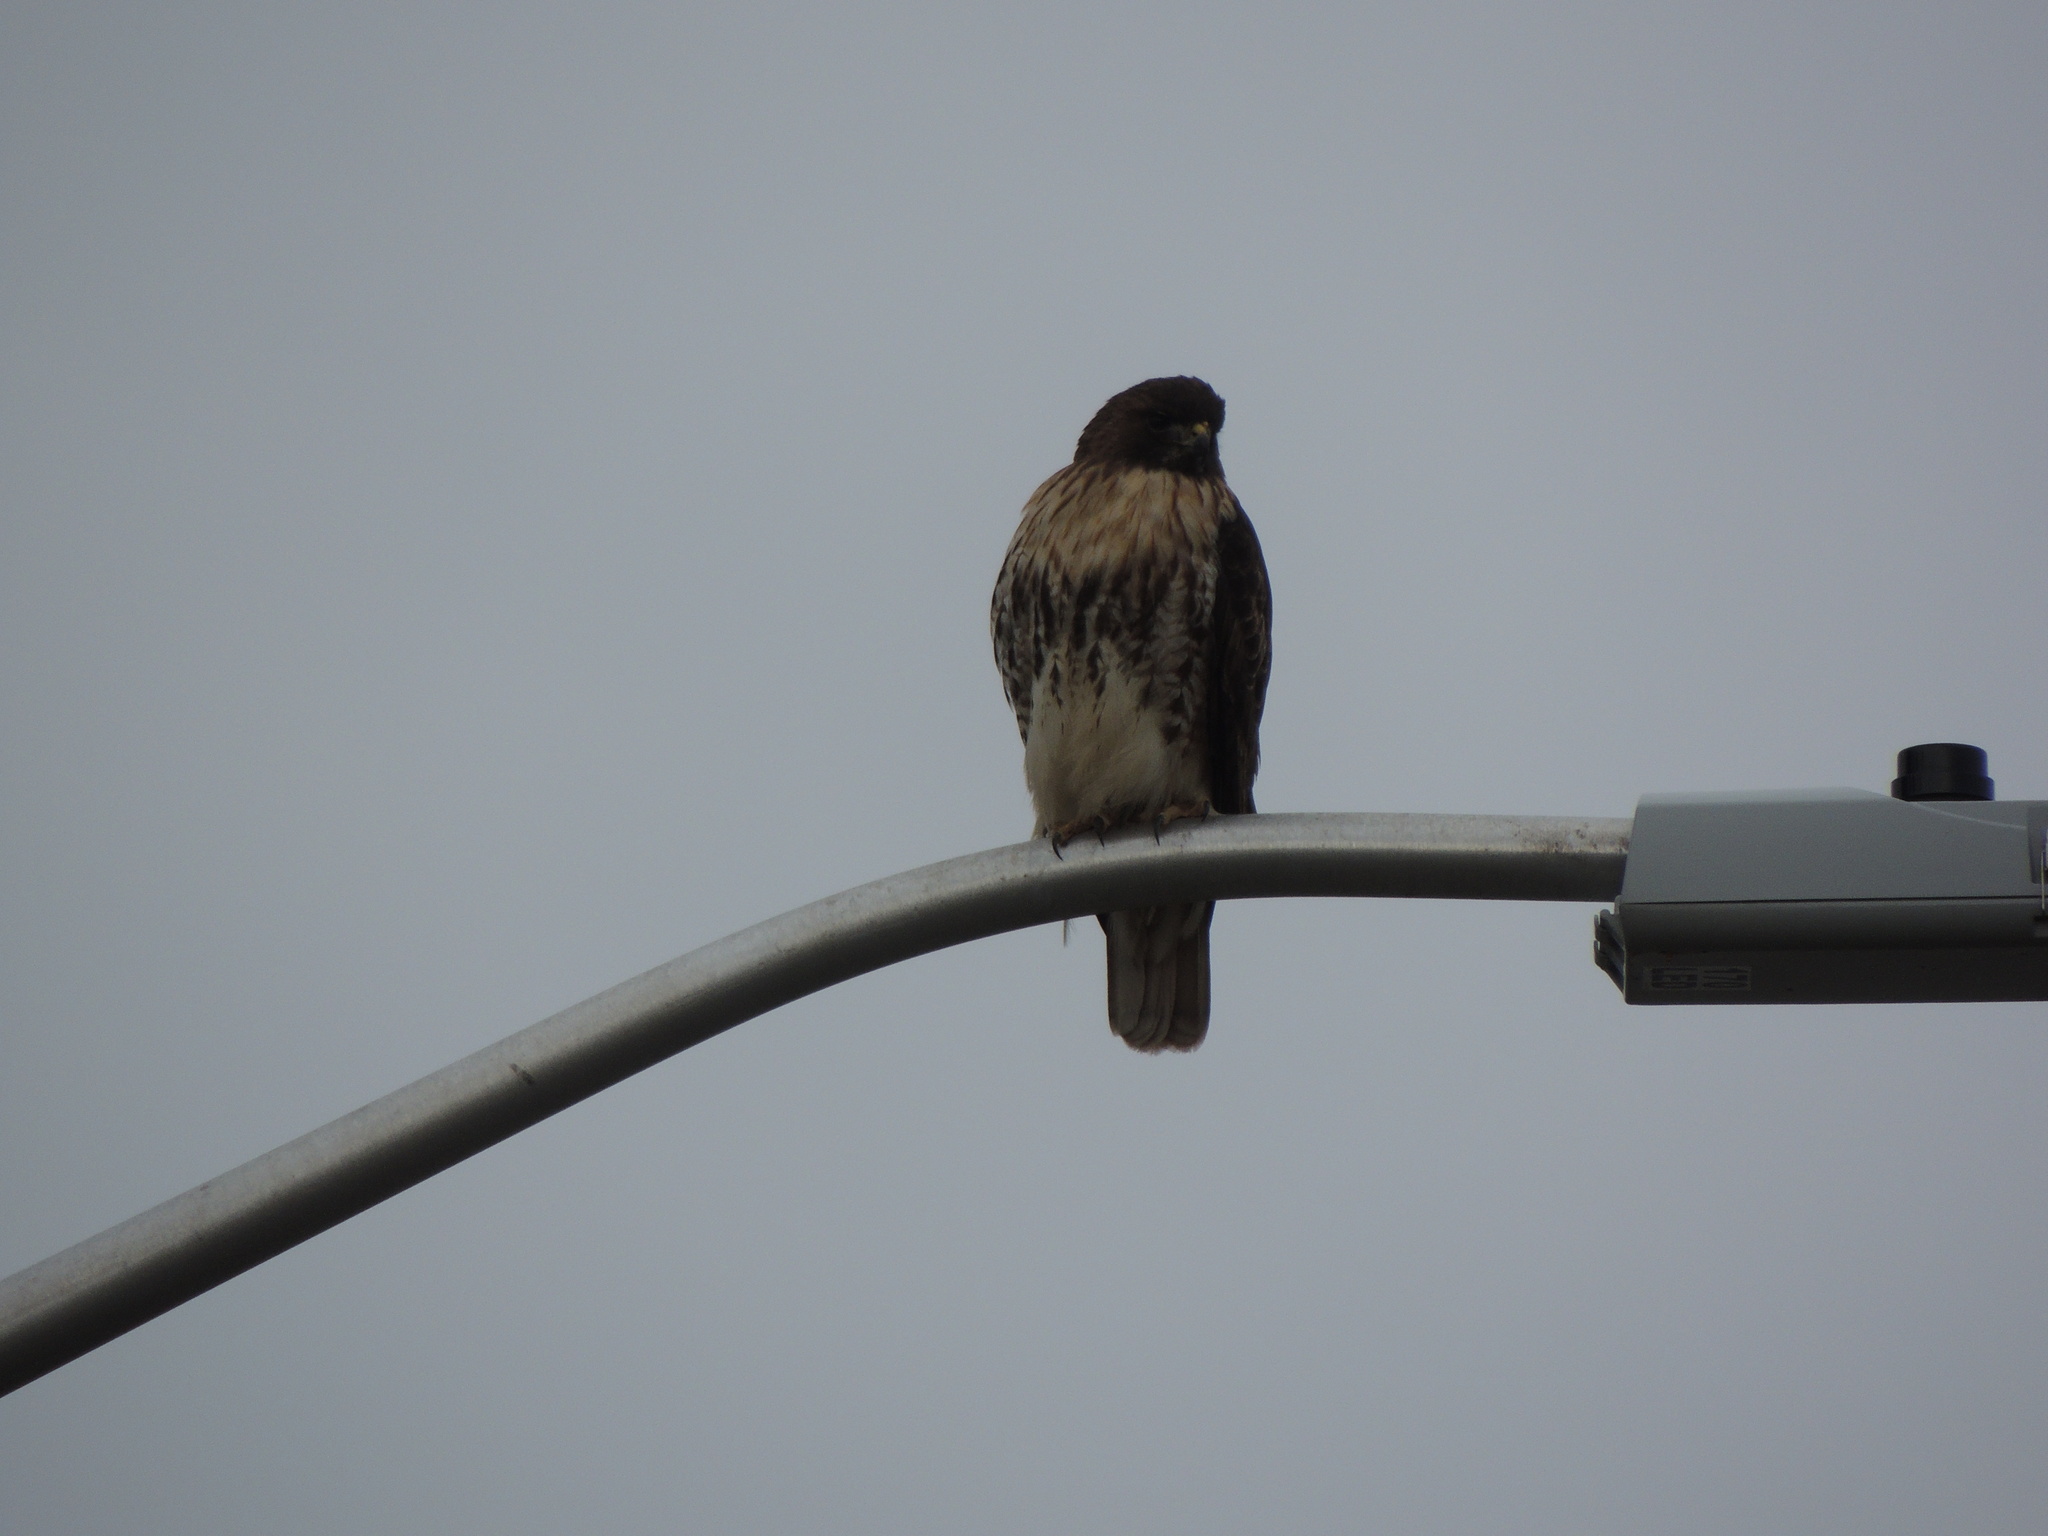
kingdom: Animalia
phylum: Chordata
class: Aves
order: Accipitriformes
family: Accipitridae
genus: Buteo
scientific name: Buteo jamaicensis
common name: Red-tailed hawk
